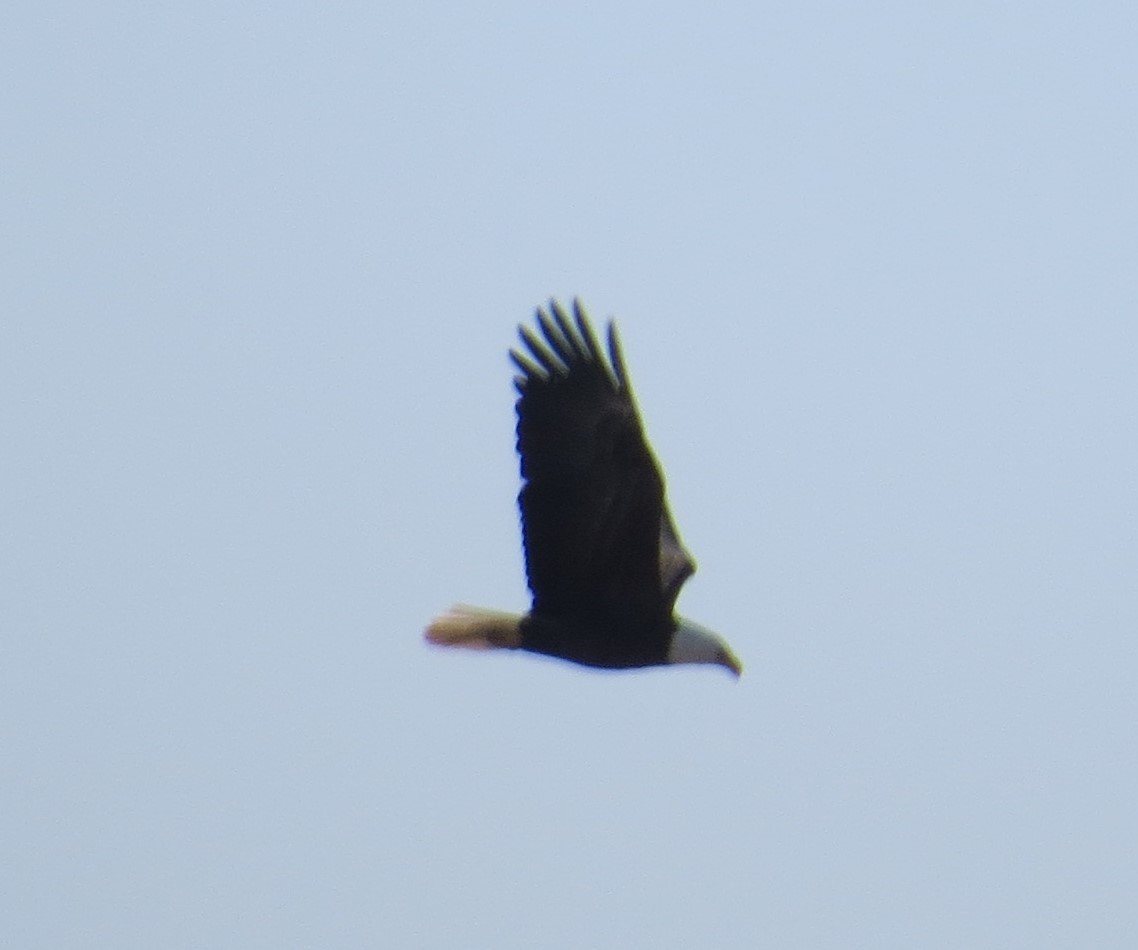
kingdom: Animalia
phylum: Chordata
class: Aves
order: Accipitriformes
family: Accipitridae
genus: Haliaeetus
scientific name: Haliaeetus leucocephalus
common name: Bald eagle
